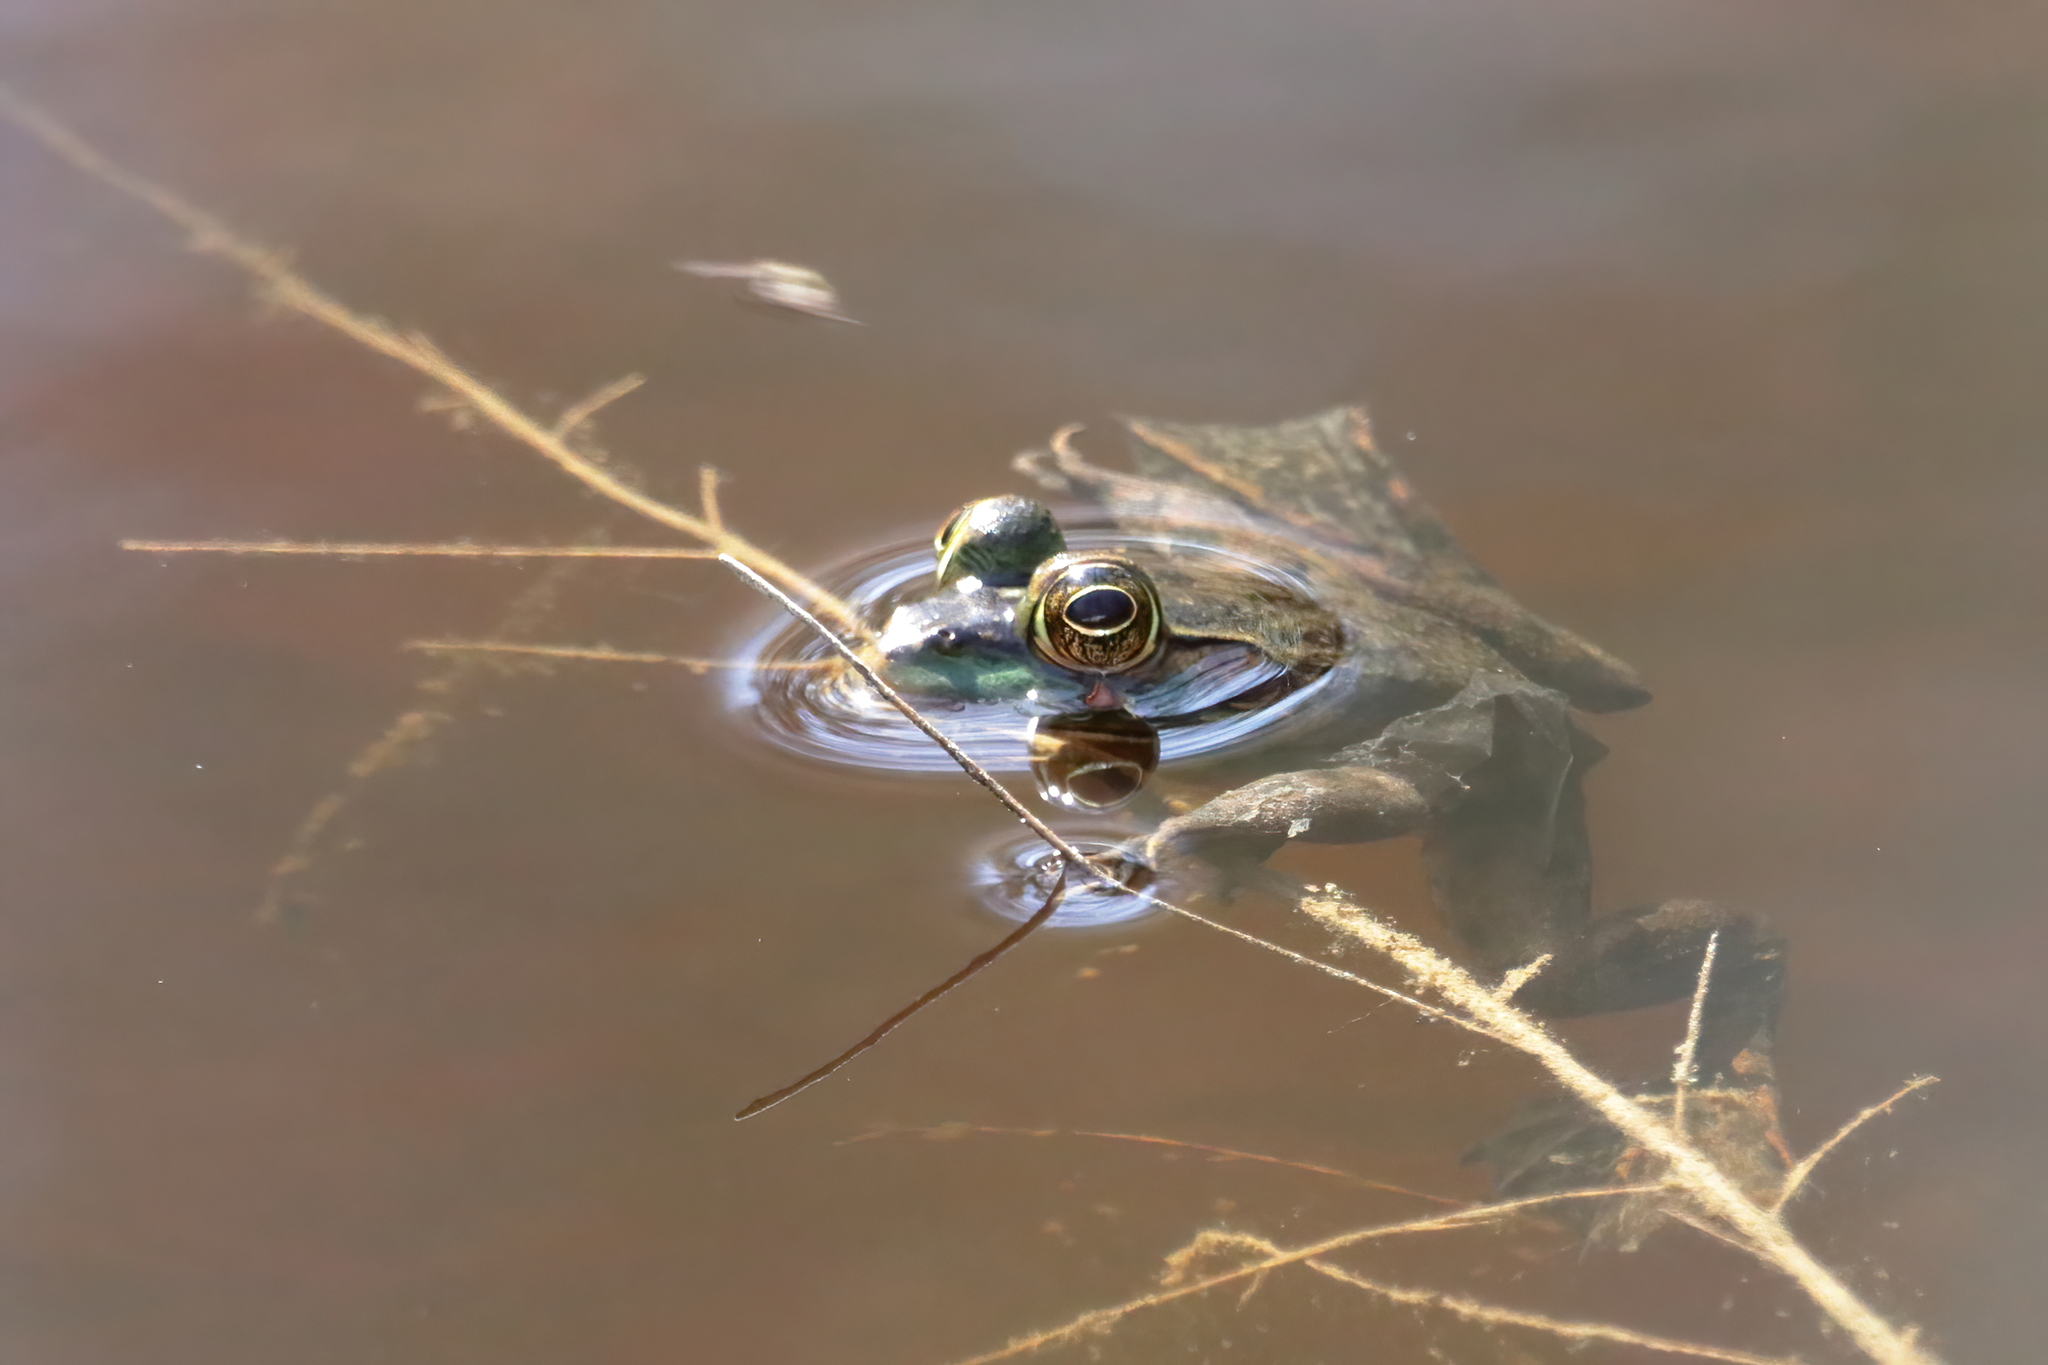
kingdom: Animalia
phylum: Chordata
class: Amphibia
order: Anura
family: Ranidae
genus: Lithobates
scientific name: Lithobates grylio
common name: Pig frog
